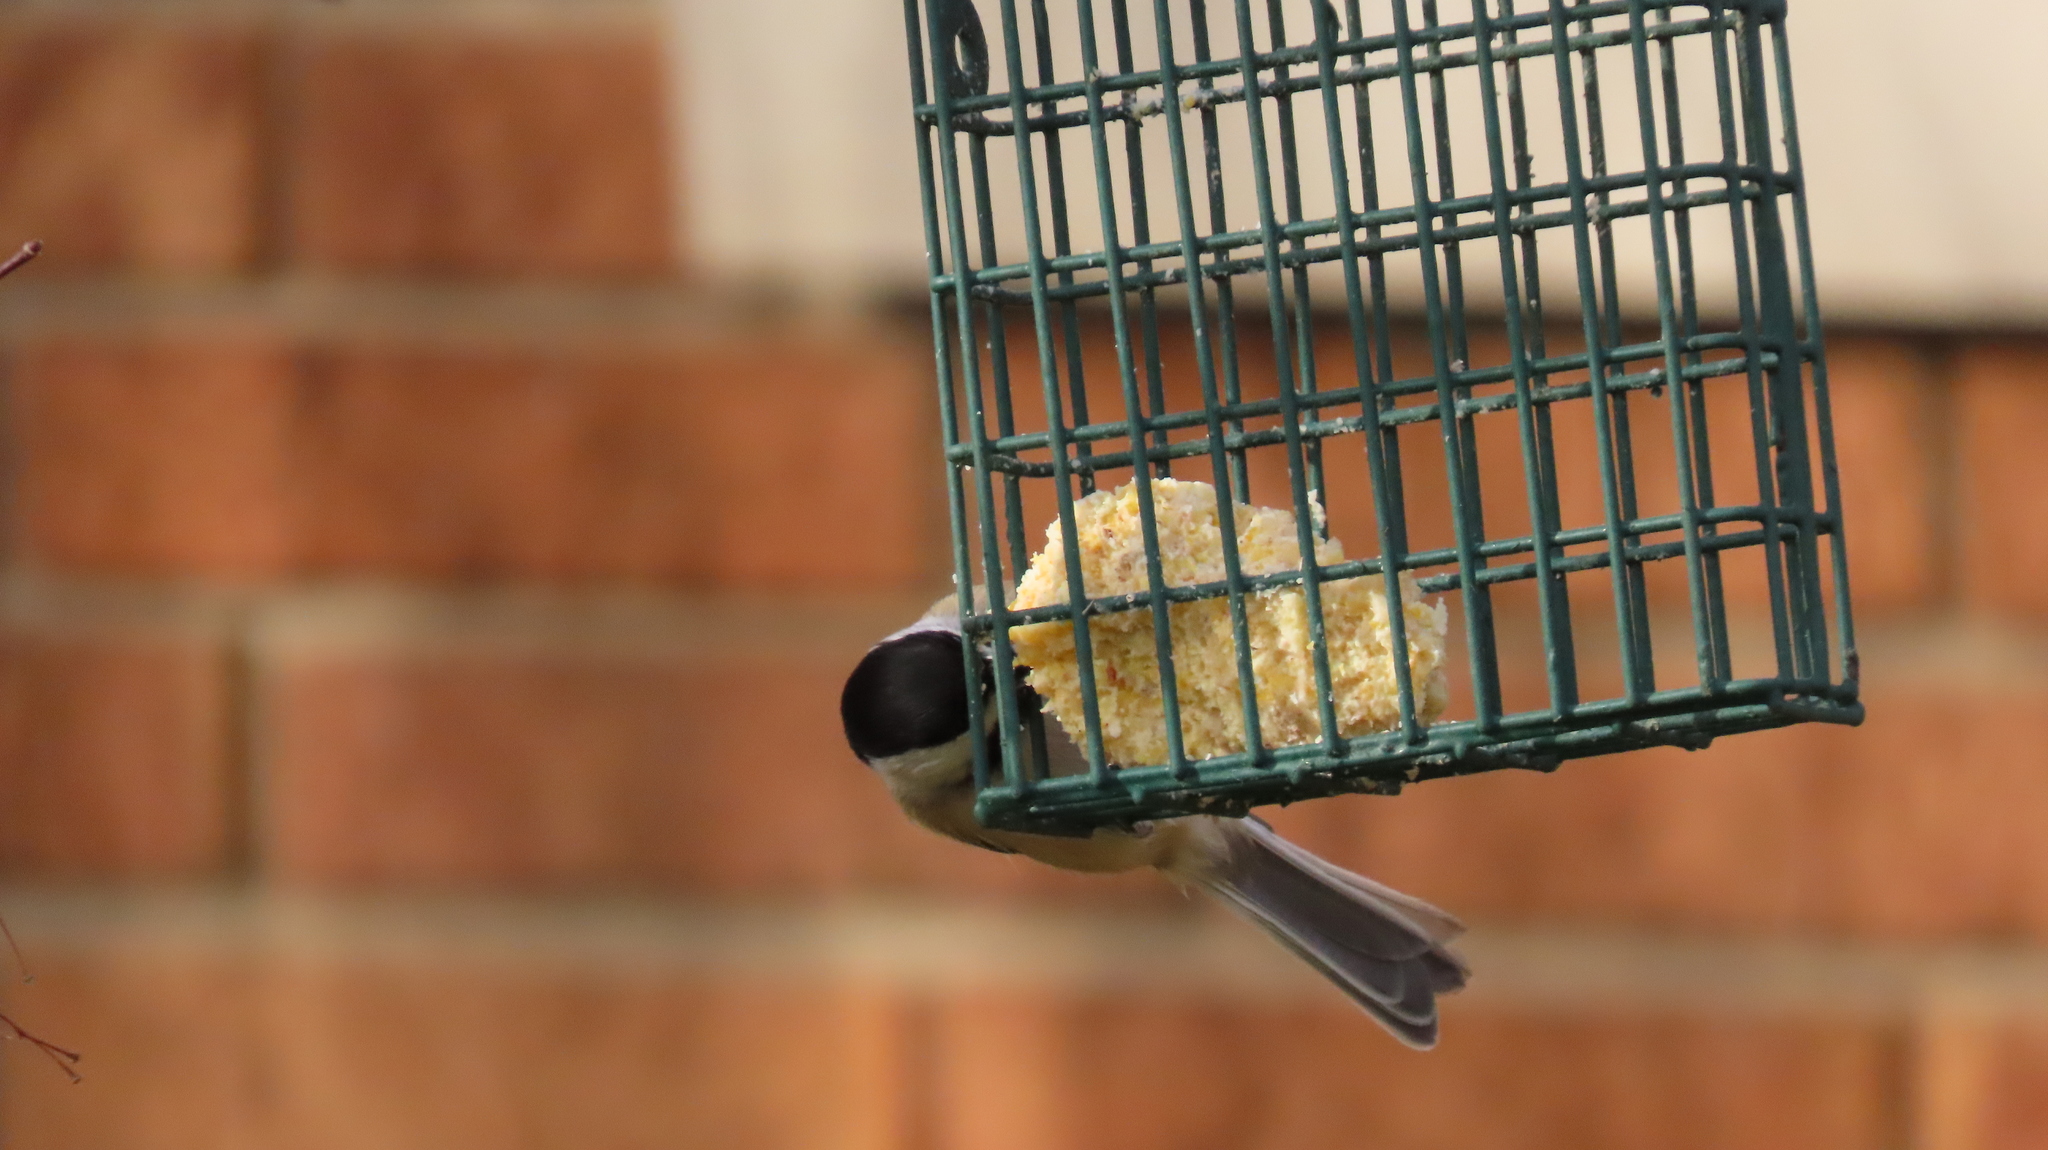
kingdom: Animalia
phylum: Chordata
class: Aves
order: Passeriformes
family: Paridae
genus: Poecile
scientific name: Poecile atricapillus
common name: Black-capped chickadee
